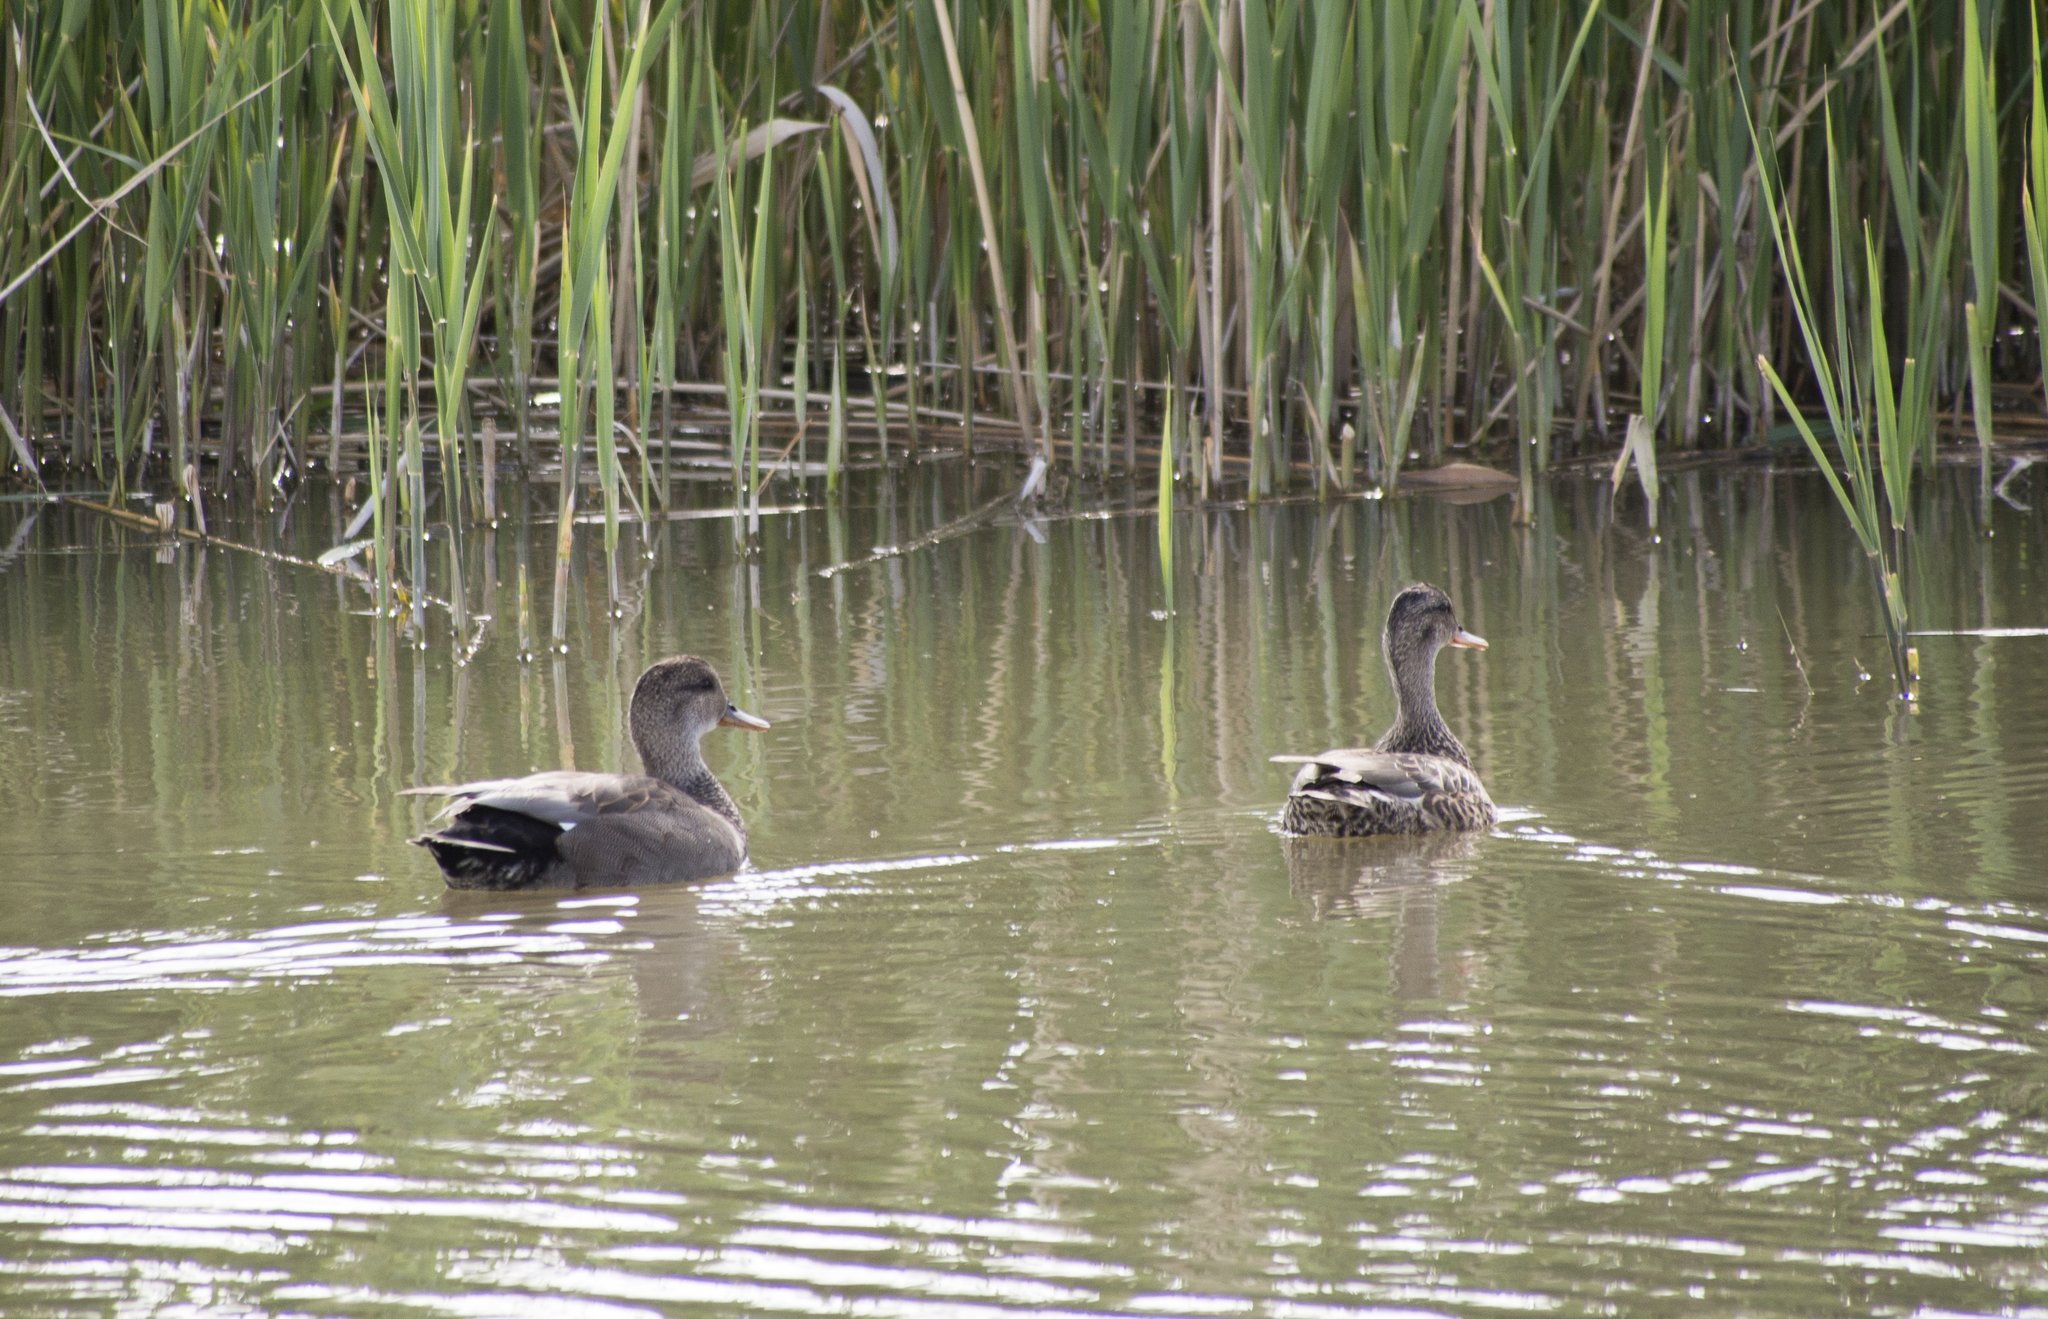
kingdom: Animalia
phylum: Chordata
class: Aves
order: Anseriformes
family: Anatidae
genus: Mareca
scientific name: Mareca strepera
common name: Gadwall
